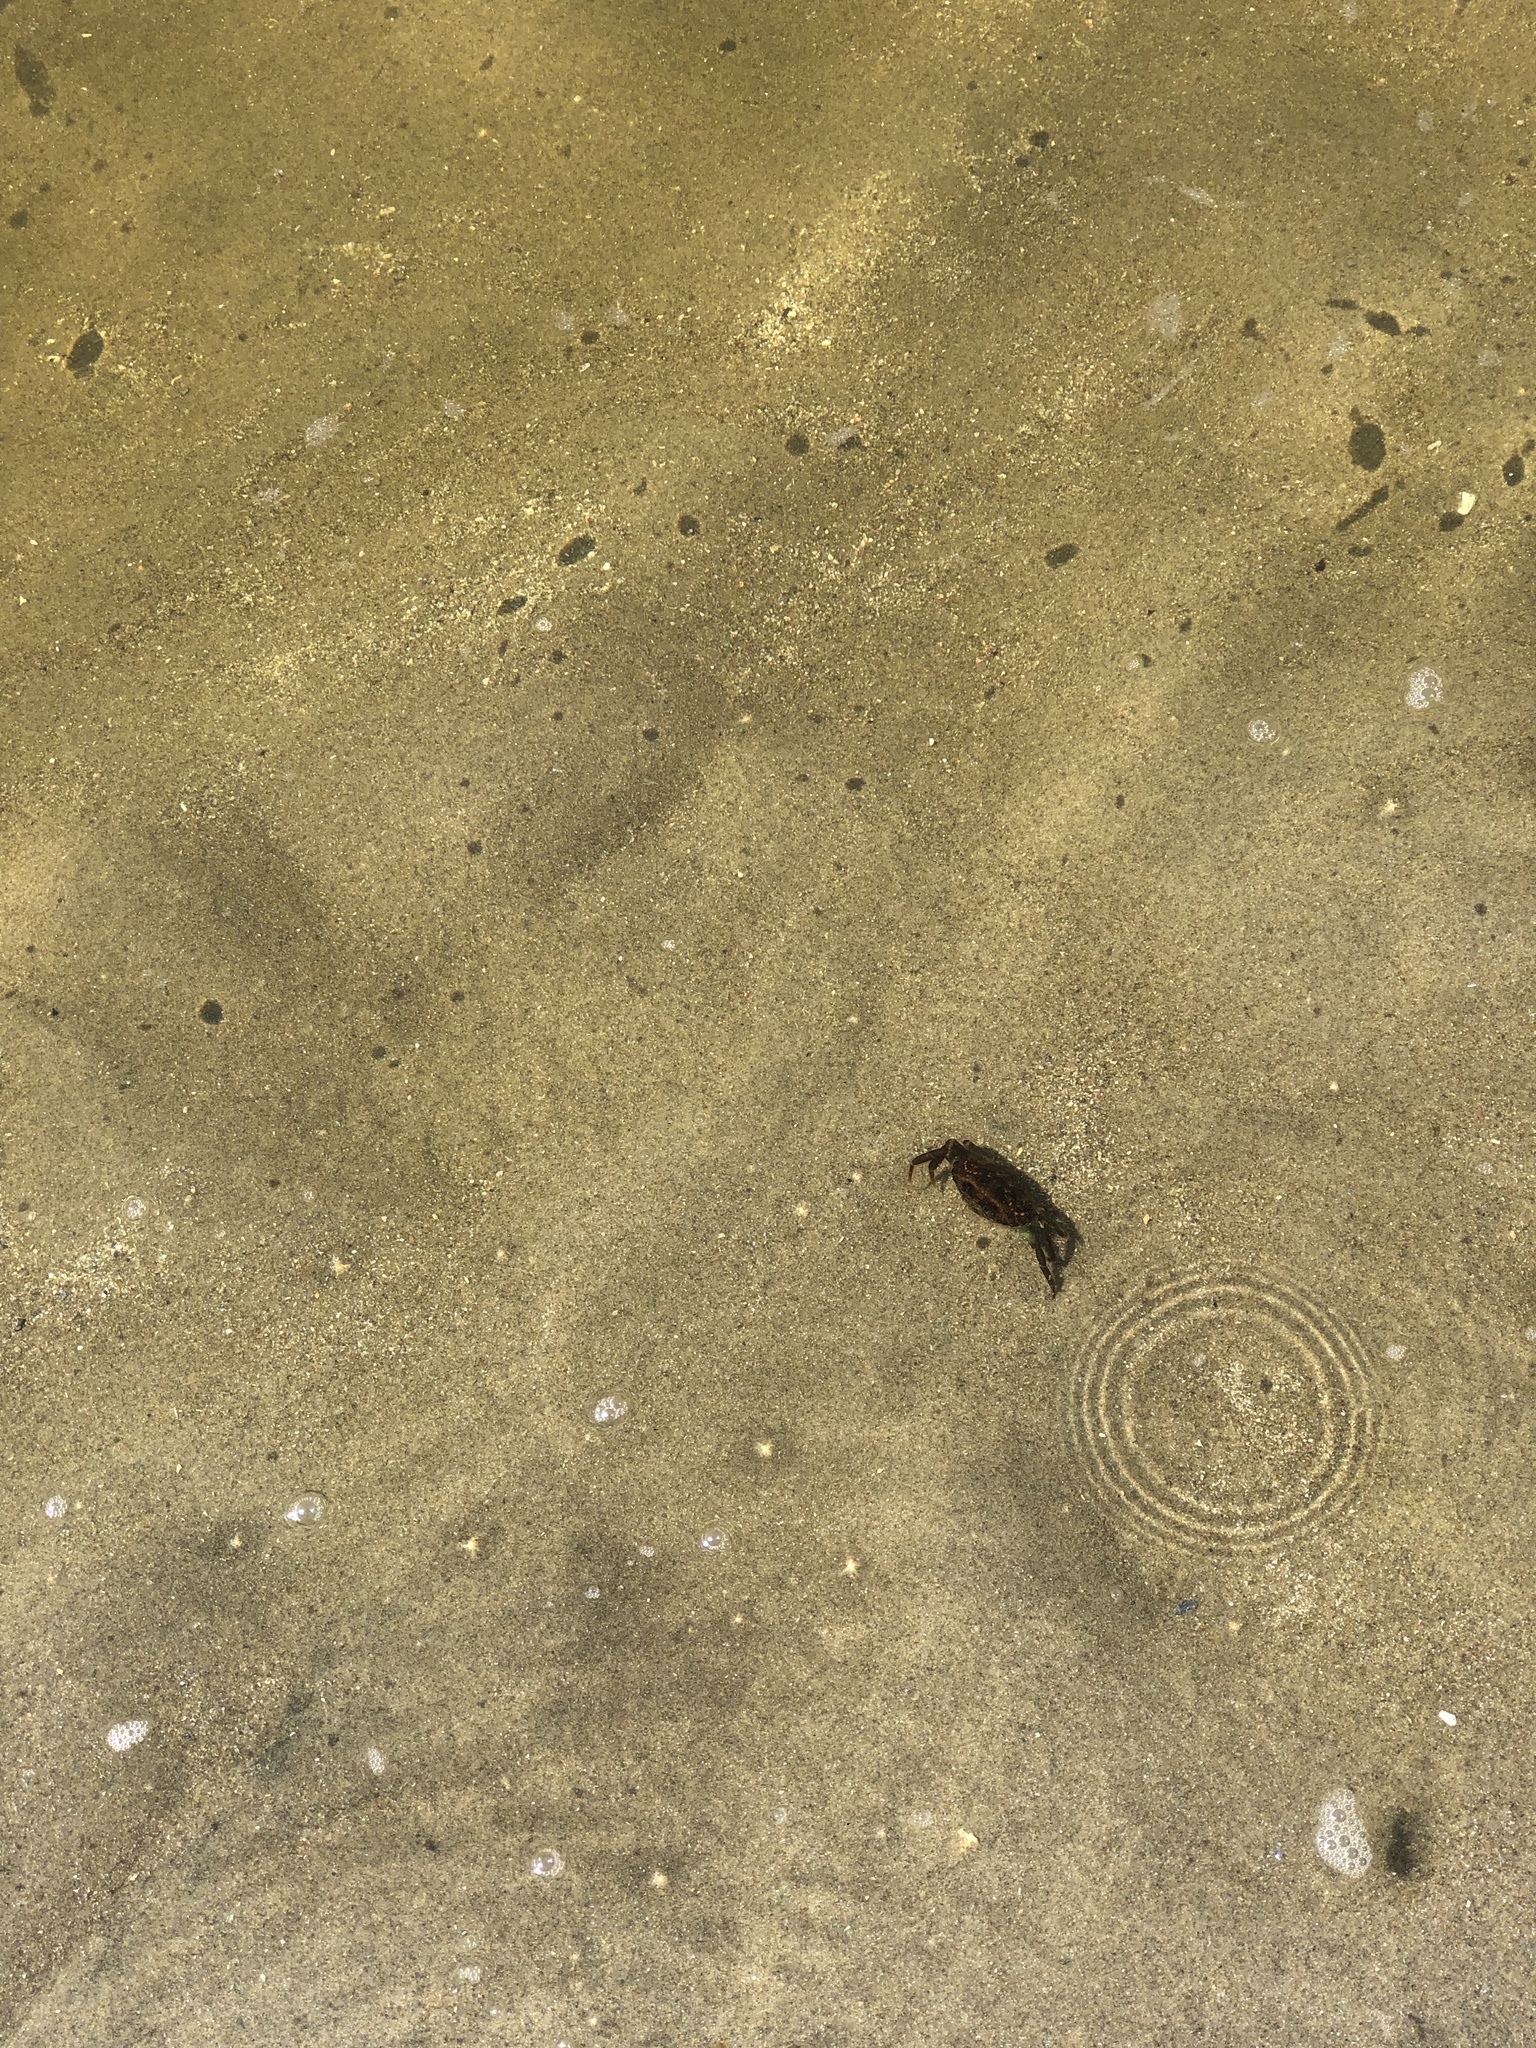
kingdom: Animalia
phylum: Arthropoda
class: Malacostraca
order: Decapoda
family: Carcinidae
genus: Carcinus
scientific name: Carcinus maenas
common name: European green crab
